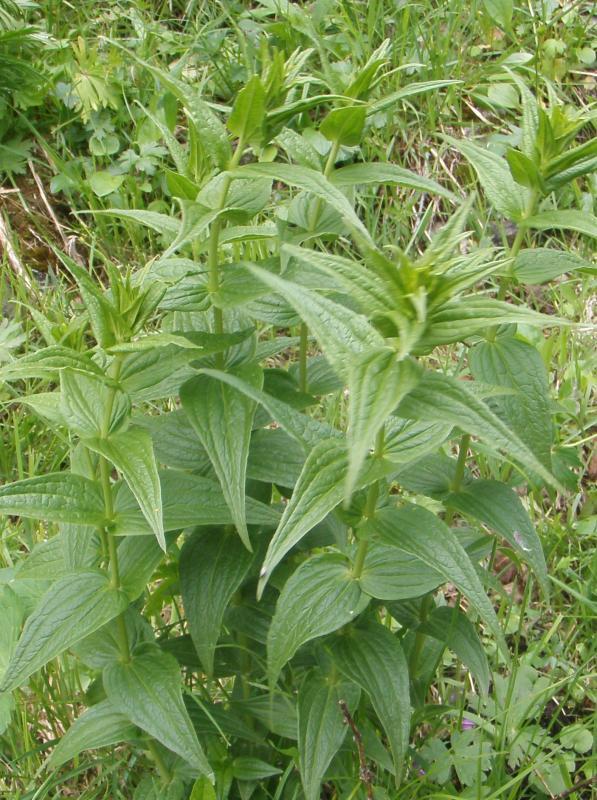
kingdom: Plantae
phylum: Tracheophyta
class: Magnoliopsida
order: Gentianales
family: Gentianaceae
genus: Gentiana
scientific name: Gentiana asclepiadea
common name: Willow gentian
